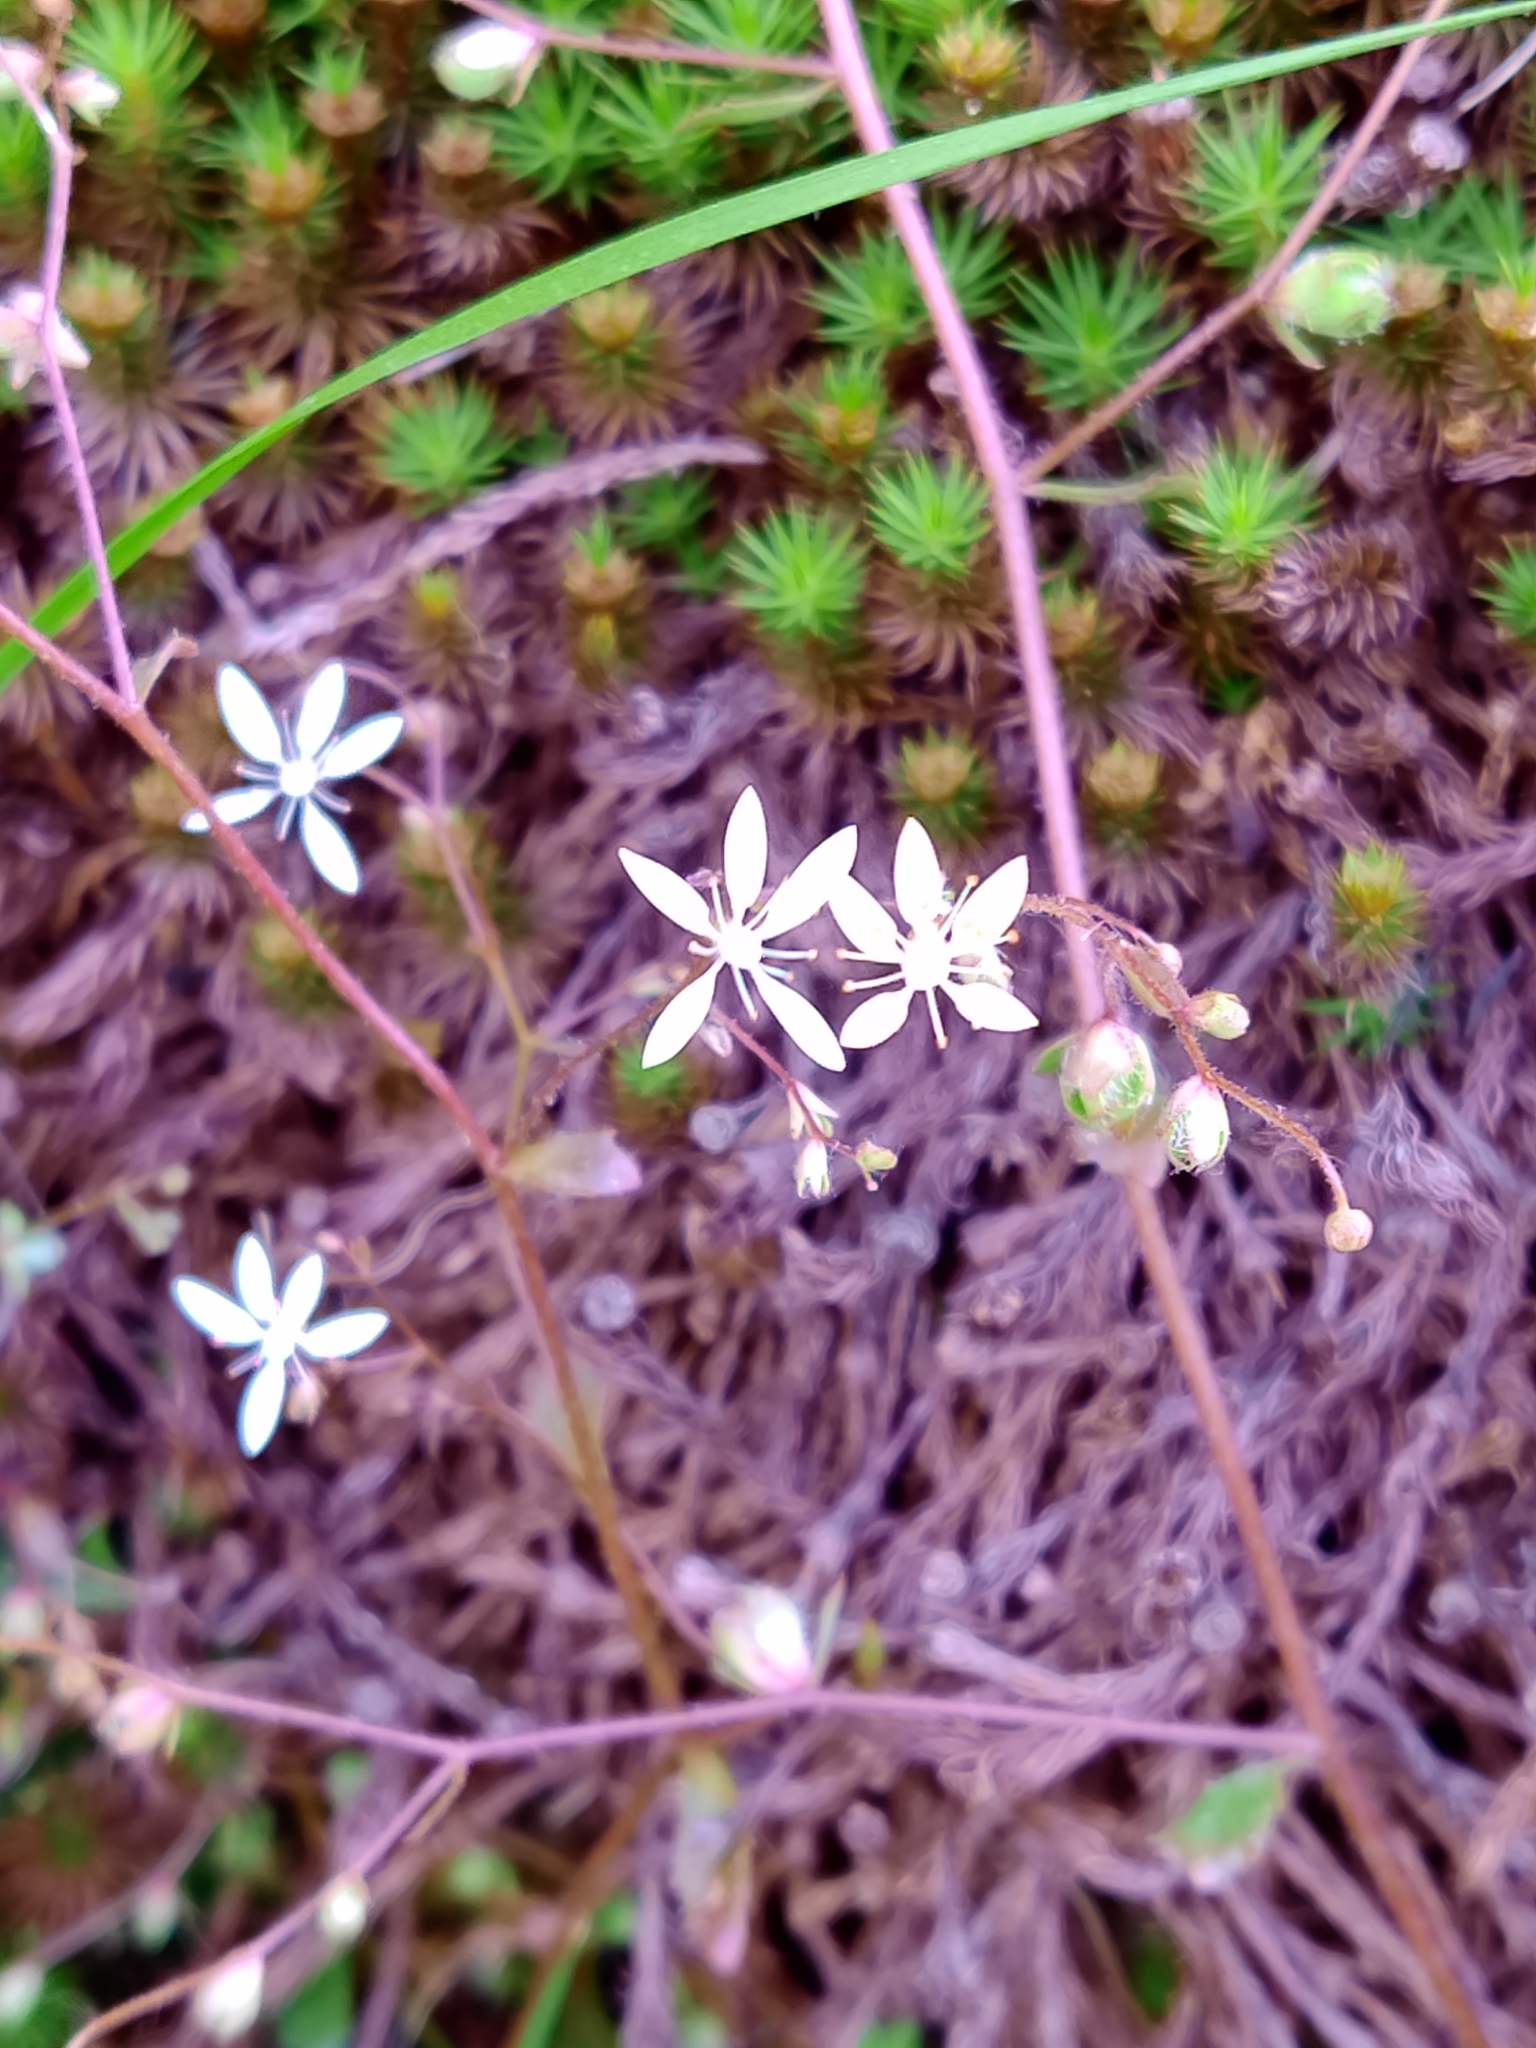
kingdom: Plantae
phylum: Tracheophyta
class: Magnoliopsida
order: Saxifragales
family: Saxifragaceae
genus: Micranthes
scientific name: Micranthes clusii
